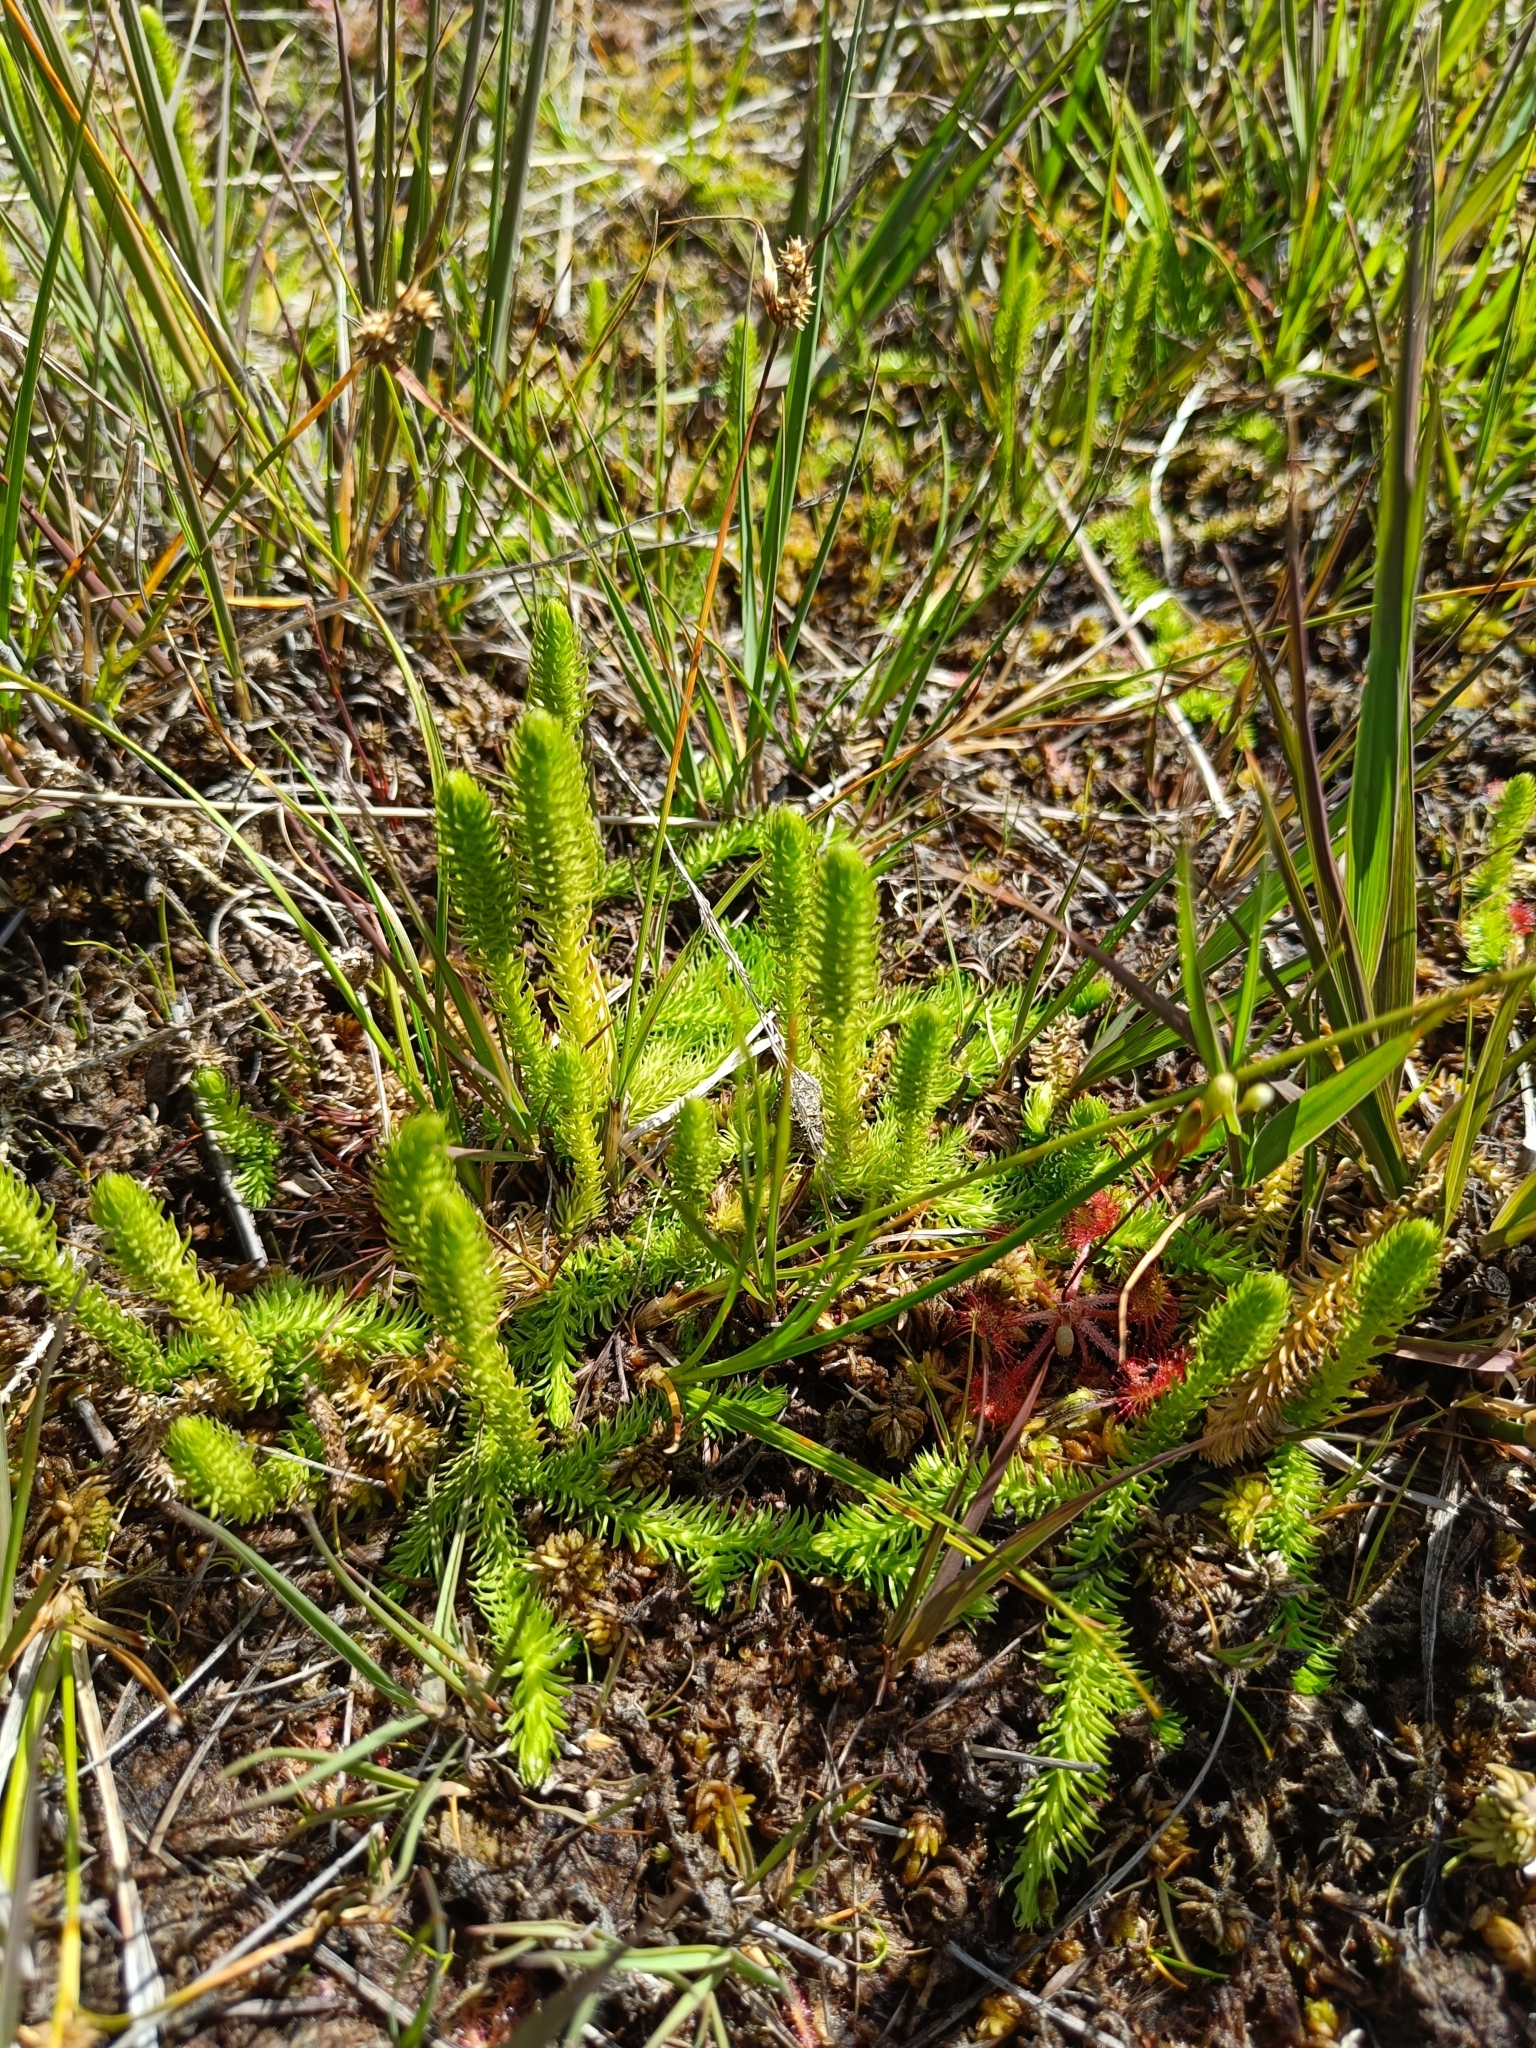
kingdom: Plantae
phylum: Tracheophyta
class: Lycopodiopsida
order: Lycopodiales
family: Lycopodiaceae
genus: Lycopodiella
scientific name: Lycopodiella inundata
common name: Marsh clubmoss
